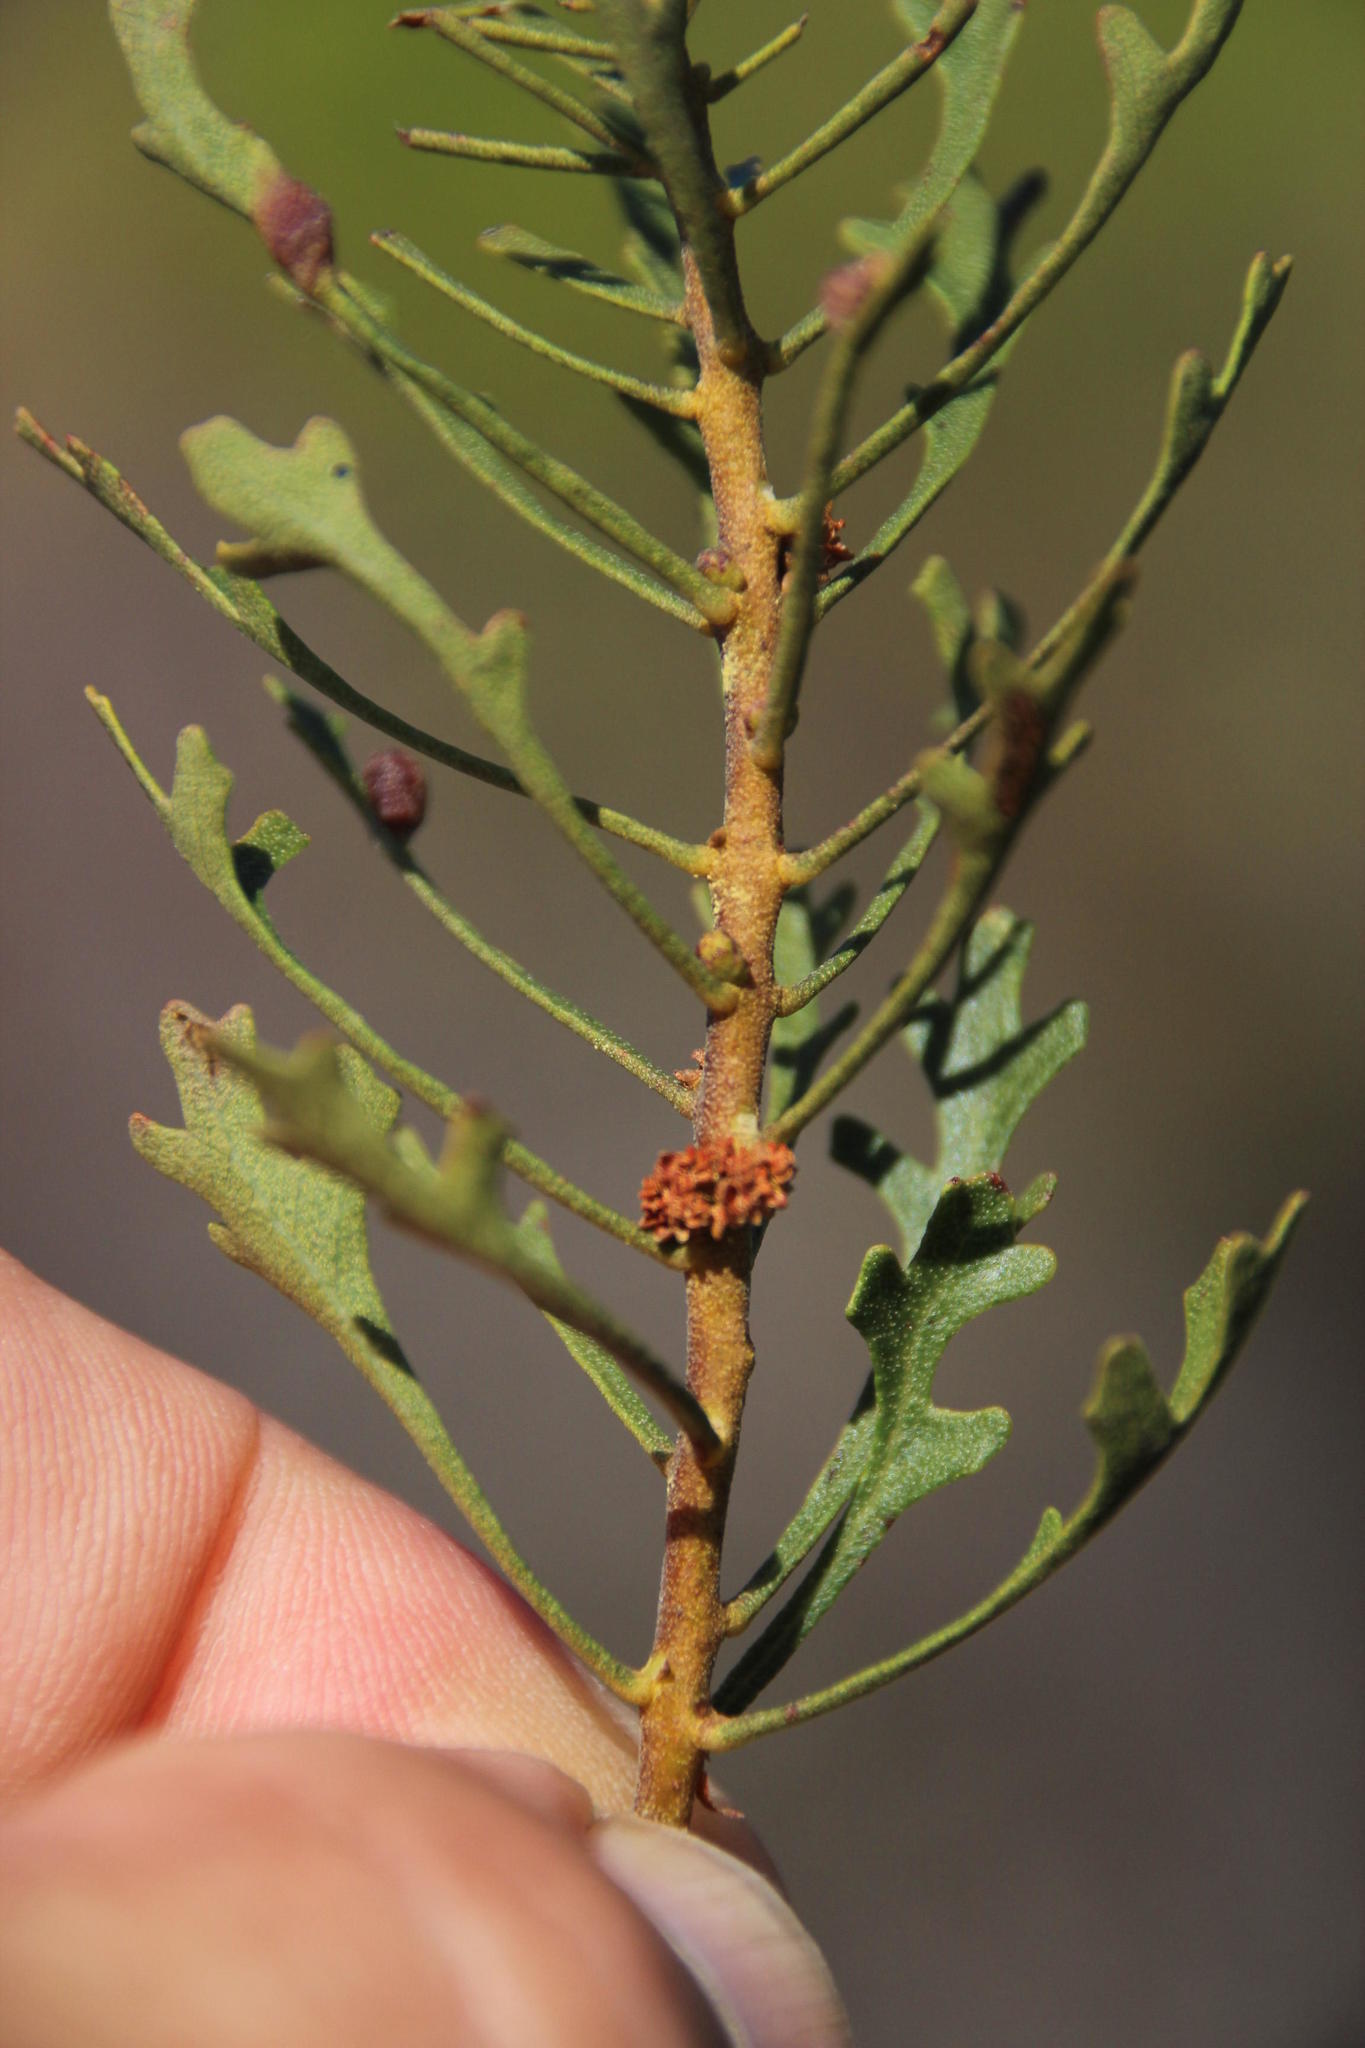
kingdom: Plantae
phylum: Tracheophyta
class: Magnoliopsida
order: Fagales
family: Myricaceae
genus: Morella
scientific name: Morella quercifolia
